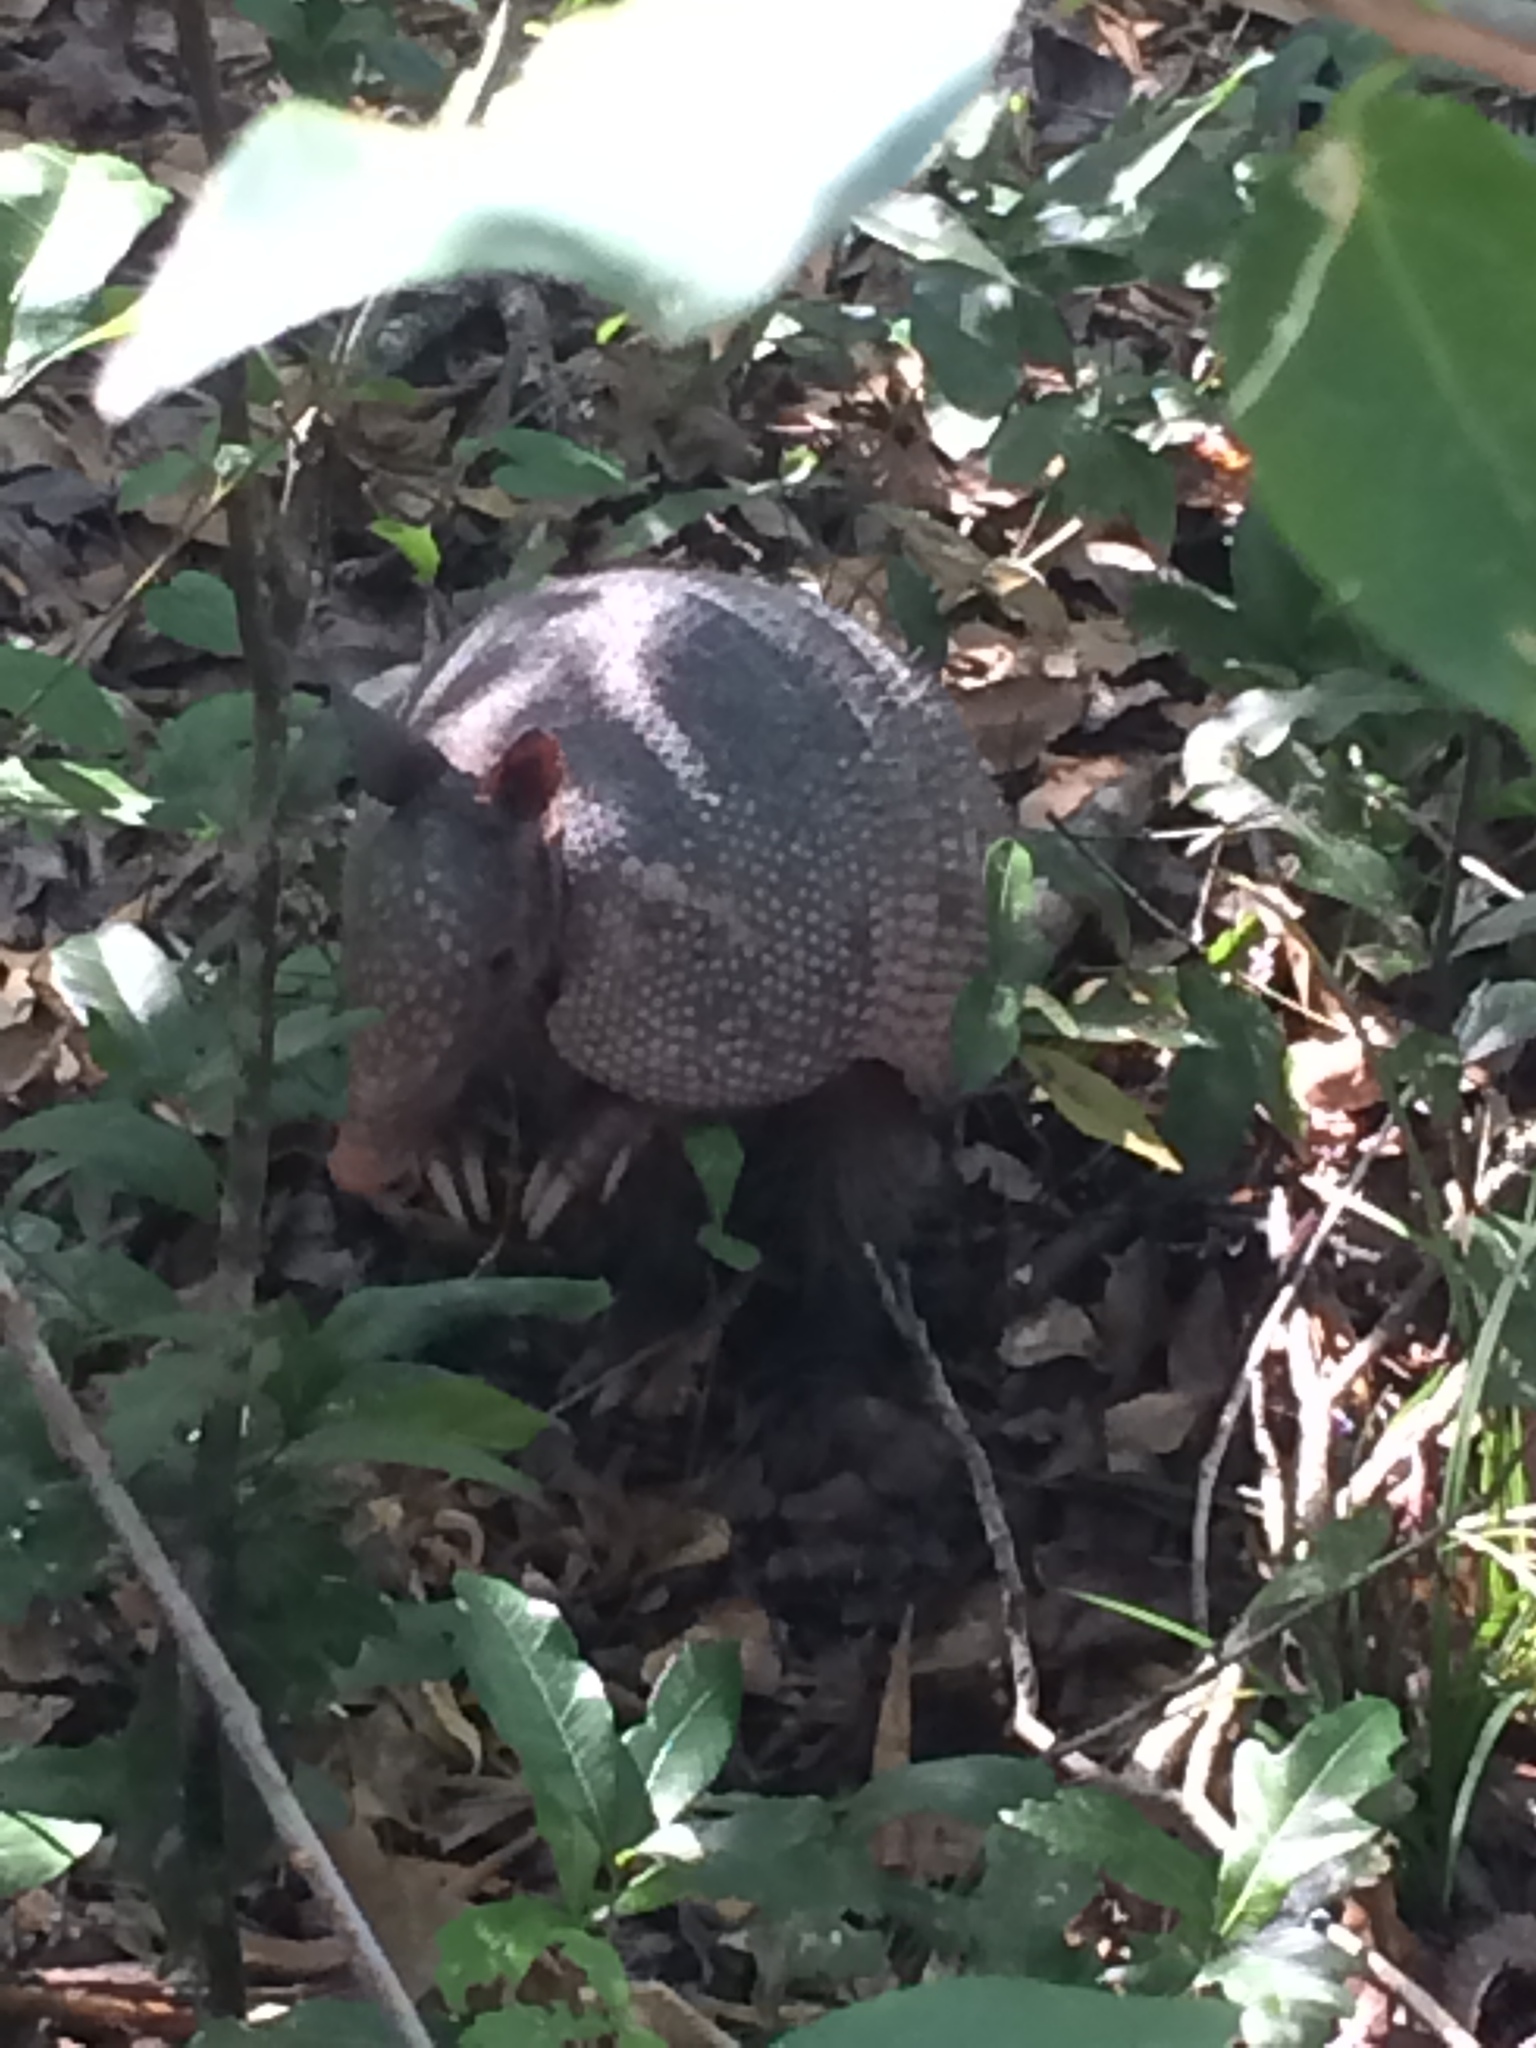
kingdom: Animalia
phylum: Chordata
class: Mammalia
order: Cingulata
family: Dasypodidae
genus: Dasypus
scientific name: Dasypus novemcinctus
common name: Nine-banded armadillo
